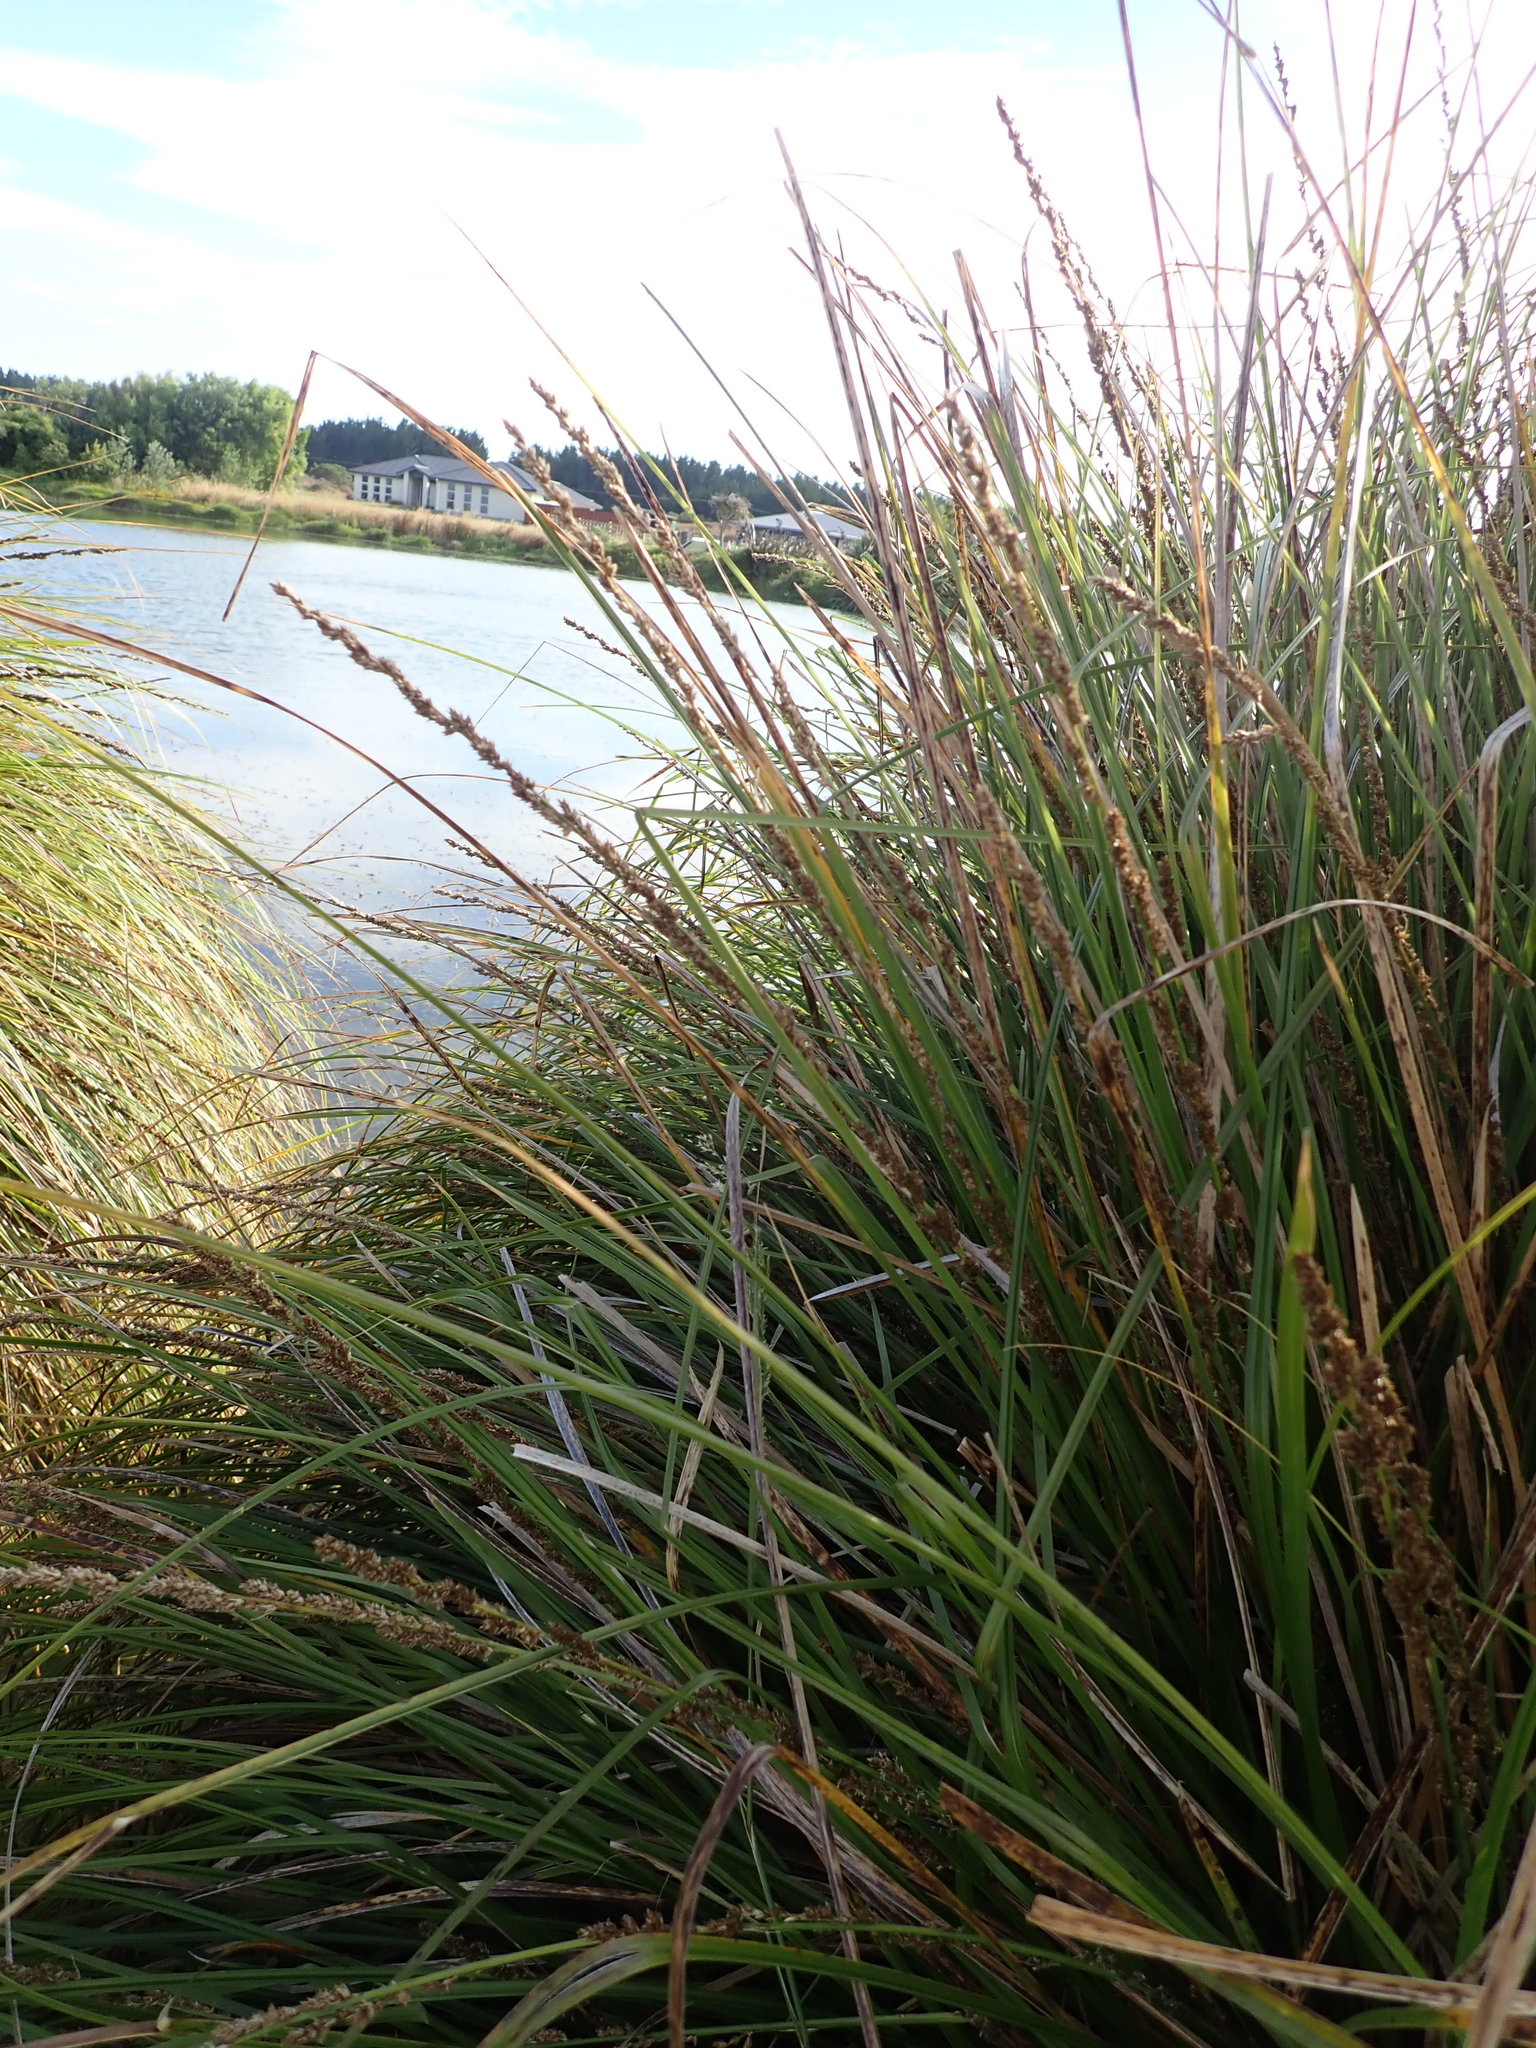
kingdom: Plantae
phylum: Tracheophyta
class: Liliopsida
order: Poales
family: Cyperaceae
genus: Carex
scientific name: Carex virgata
